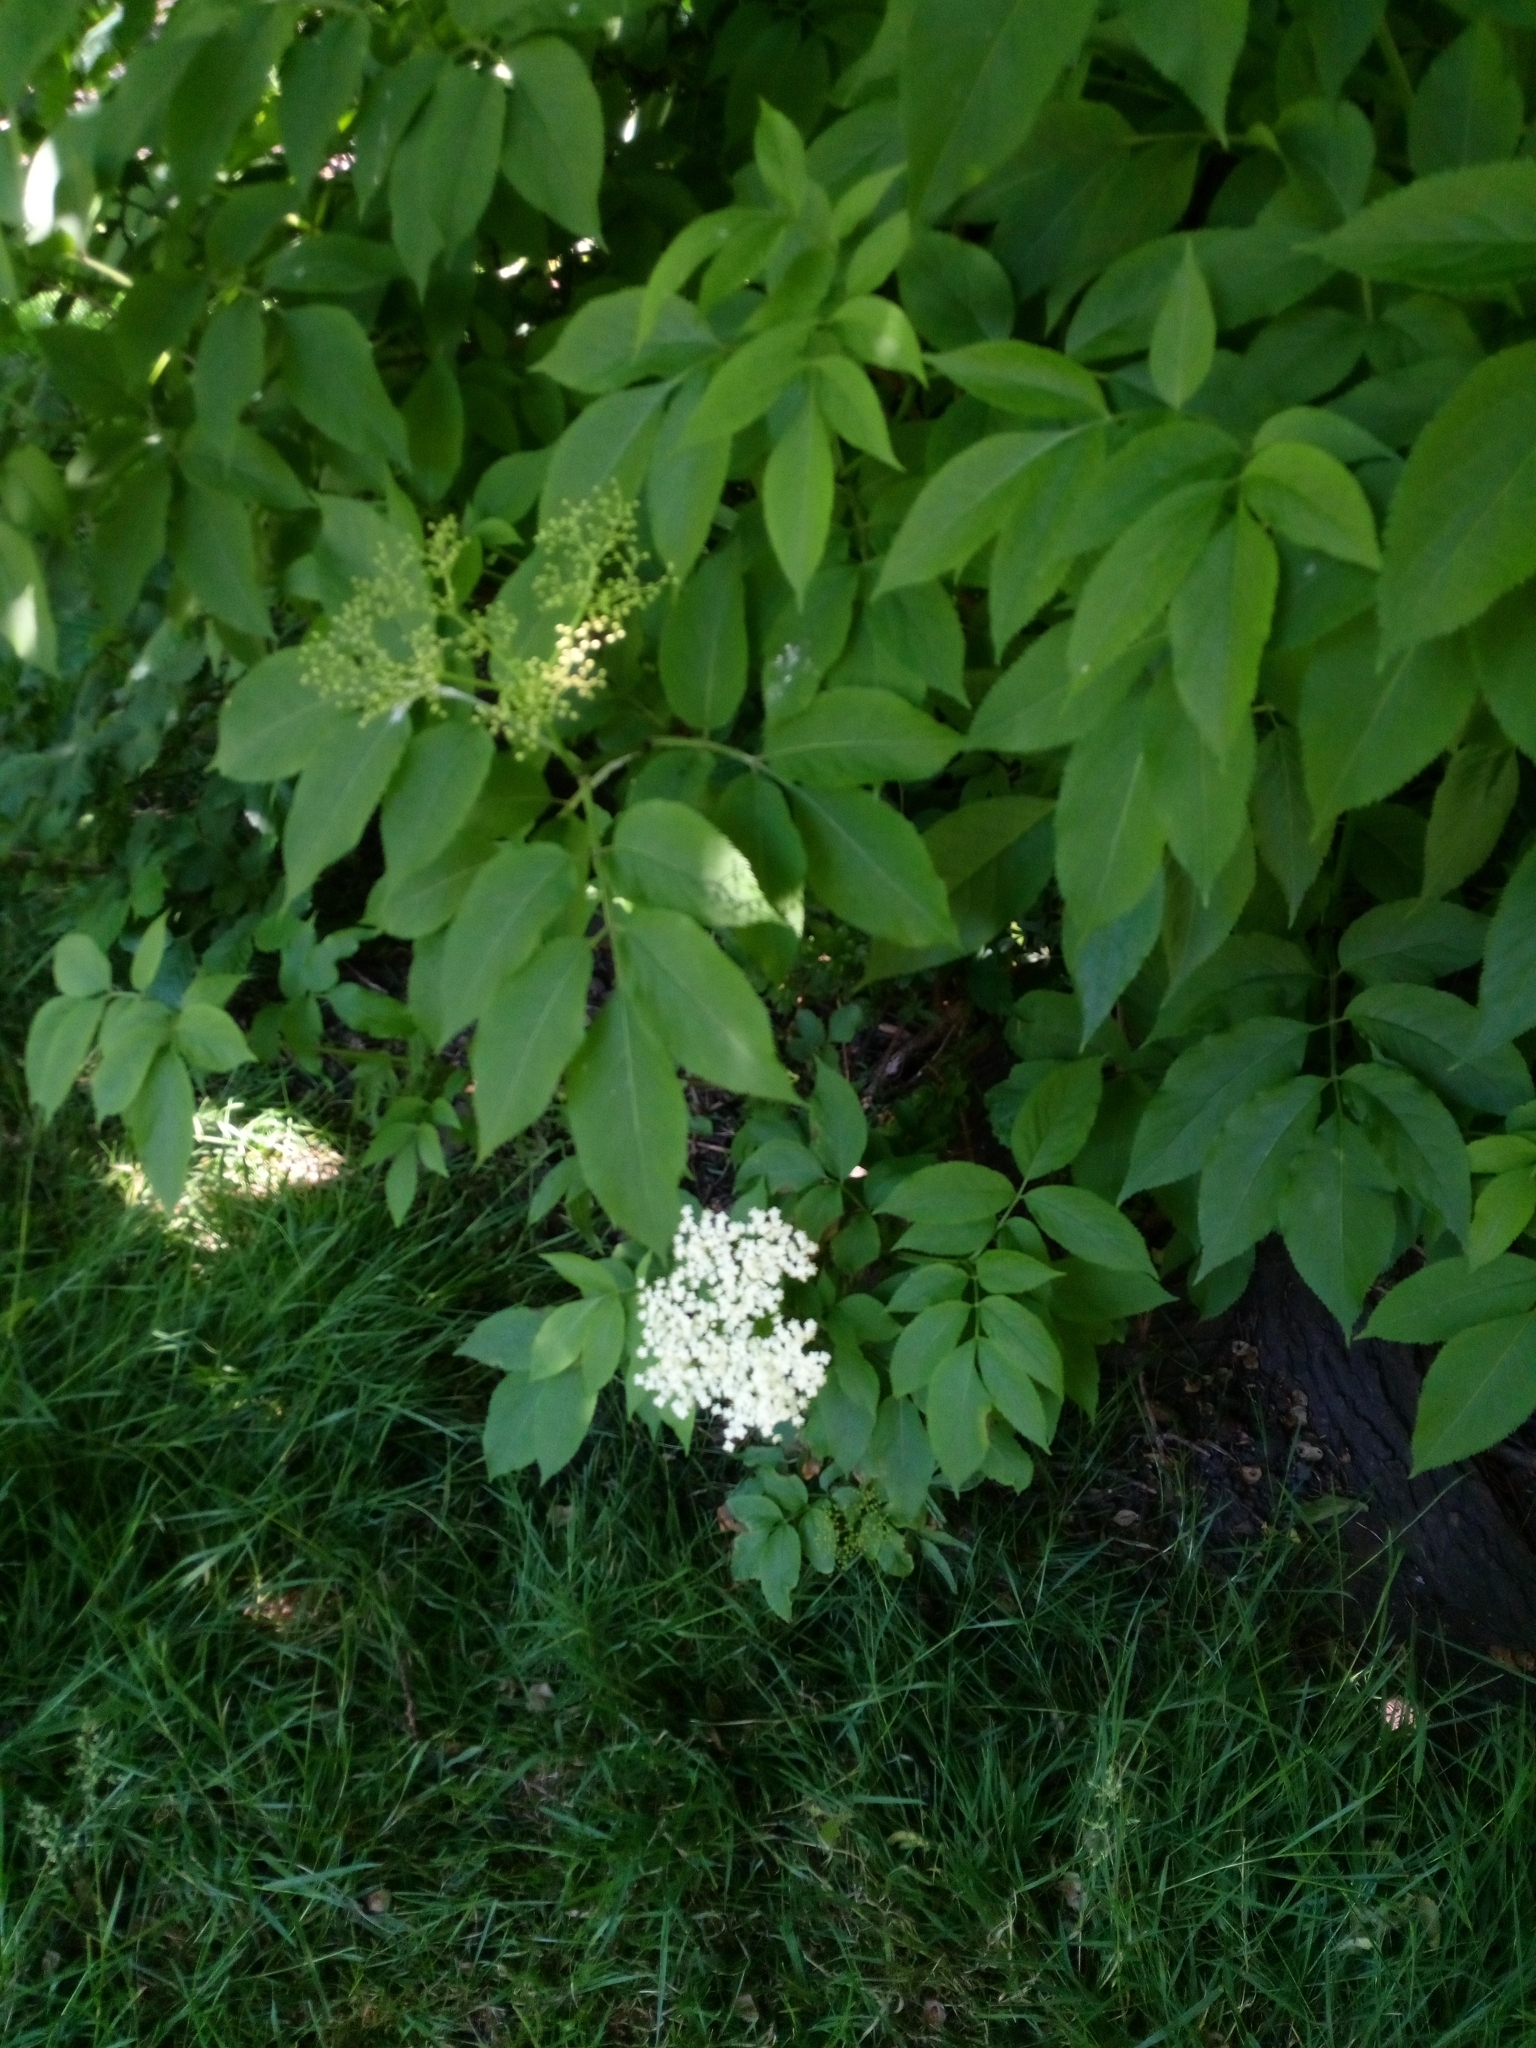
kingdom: Plantae
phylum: Tracheophyta
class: Magnoliopsida
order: Dipsacales
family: Viburnaceae
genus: Sambucus
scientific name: Sambucus nigra
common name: Elder
